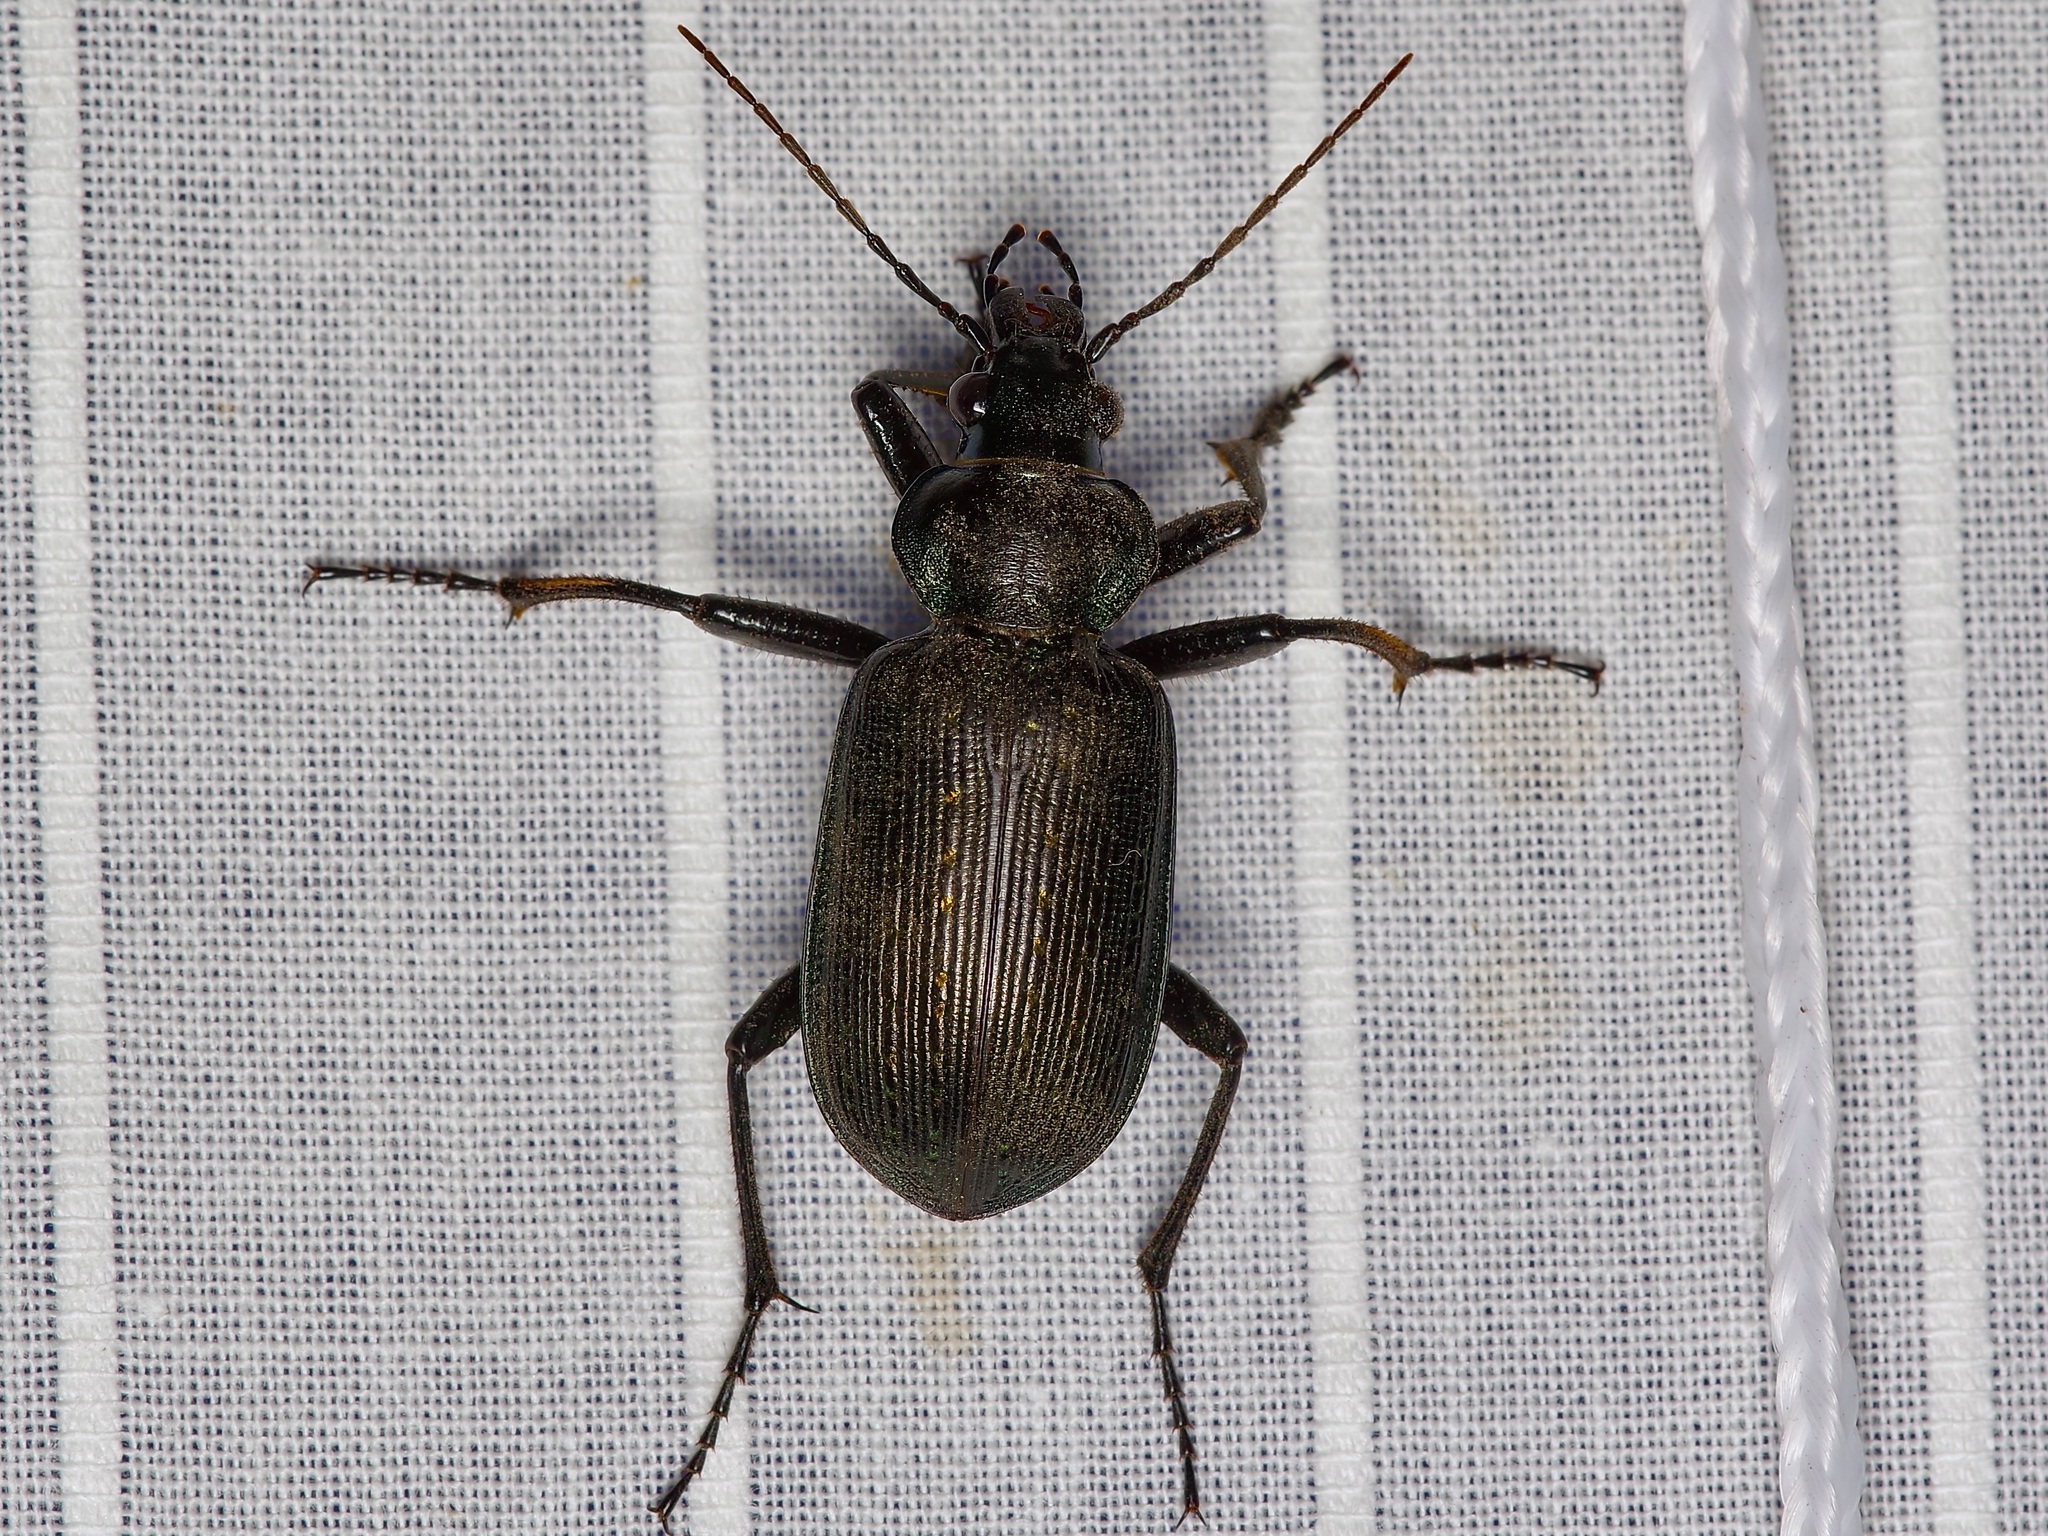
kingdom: Animalia
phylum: Arthropoda
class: Insecta
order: Coleoptera
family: Carabidae
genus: Calosoma
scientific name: Calosoma sayi
